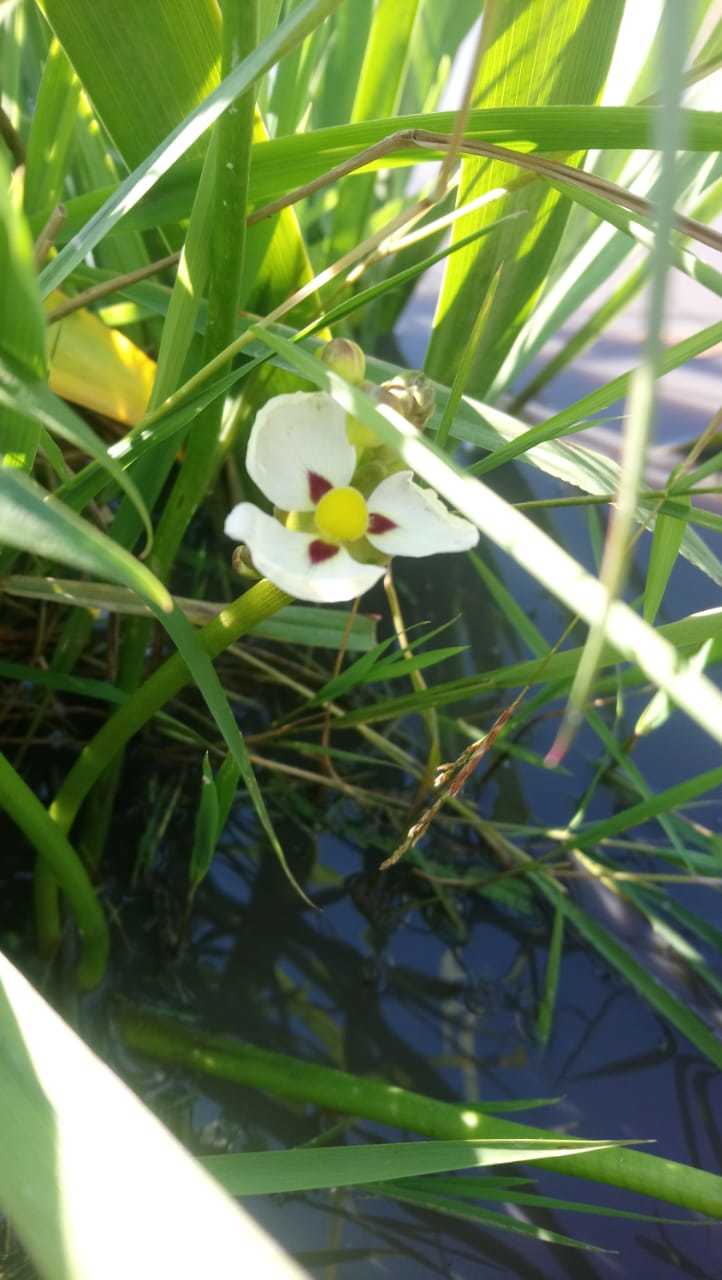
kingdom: Plantae
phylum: Tracheophyta
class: Liliopsida
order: Alismatales
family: Alismataceae
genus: Sagittaria
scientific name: Sagittaria montevidensis
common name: Giant arrowhead
